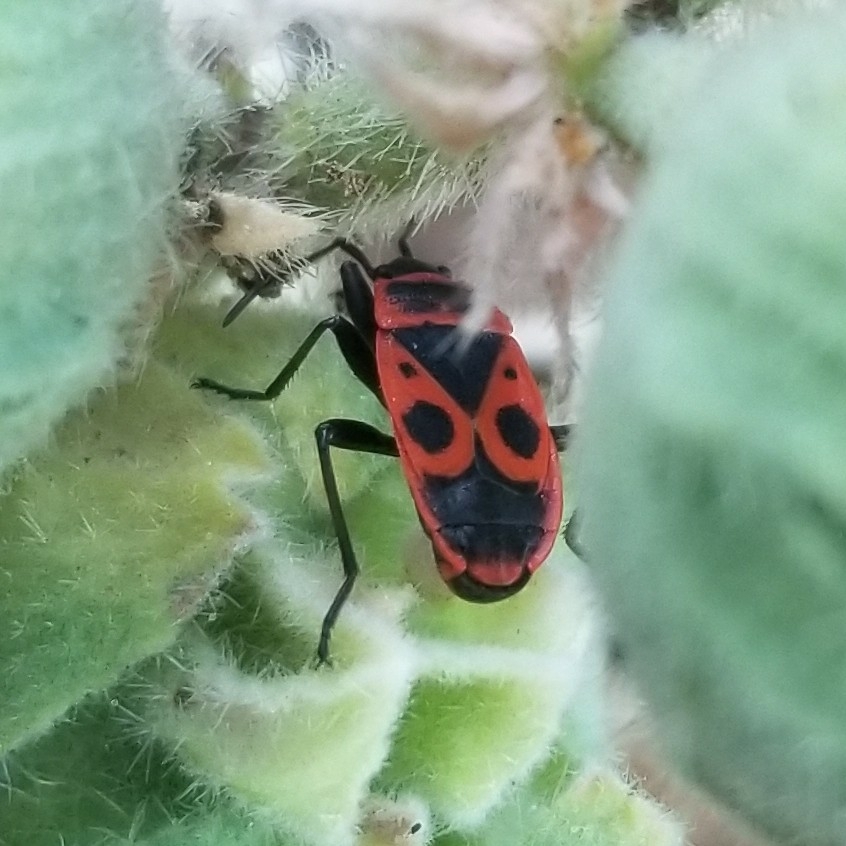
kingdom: Animalia
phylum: Arthropoda
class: Insecta
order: Hemiptera
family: Pyrrhocoridae
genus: Pyrrhocoris
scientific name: Pyrrhocoris apterus
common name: Firebug
